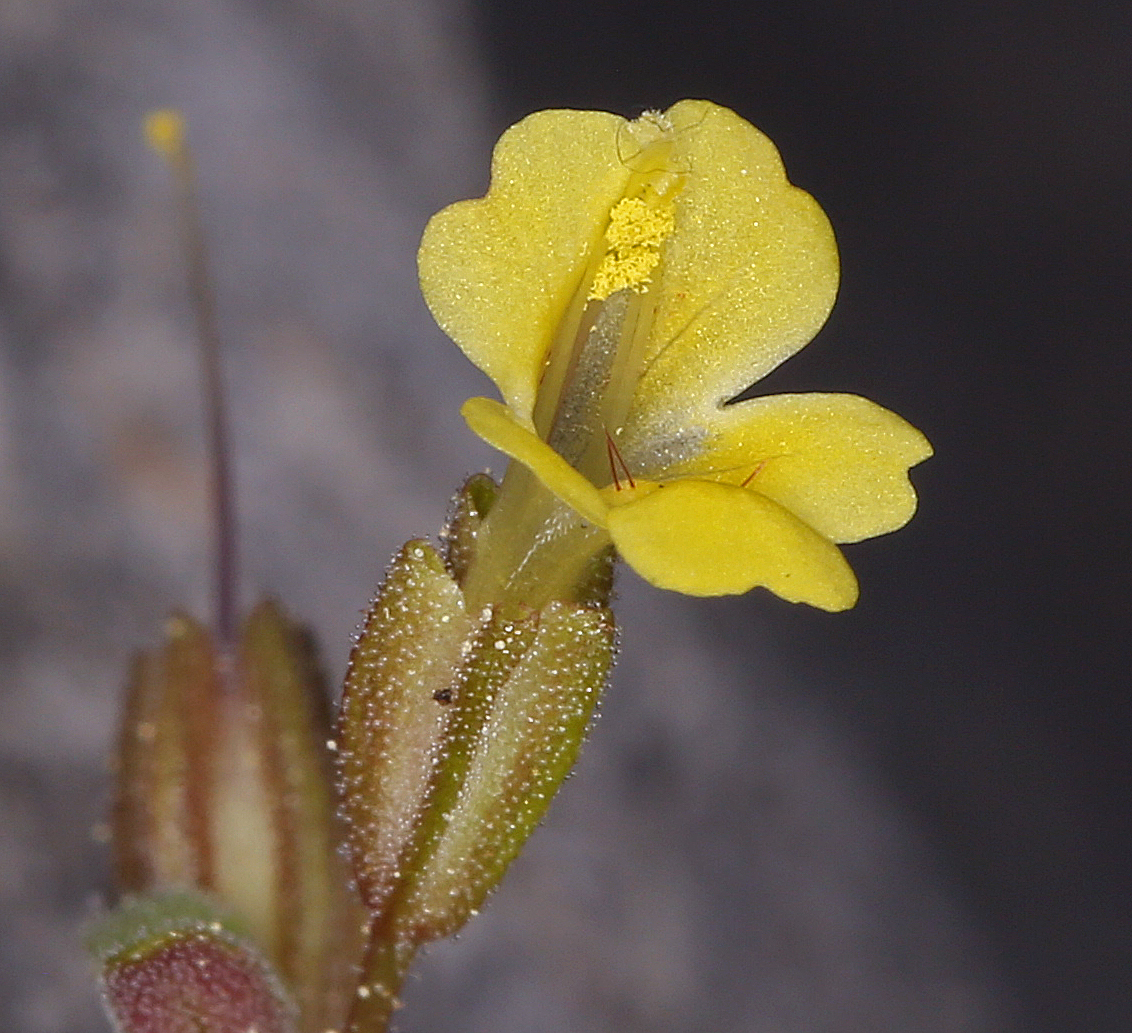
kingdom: Plantae
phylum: Tracheophyta
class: Magnoliopsida
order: Lamiales
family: Phrymaceae
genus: Erythranthe
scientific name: Erythranthe taylorii
